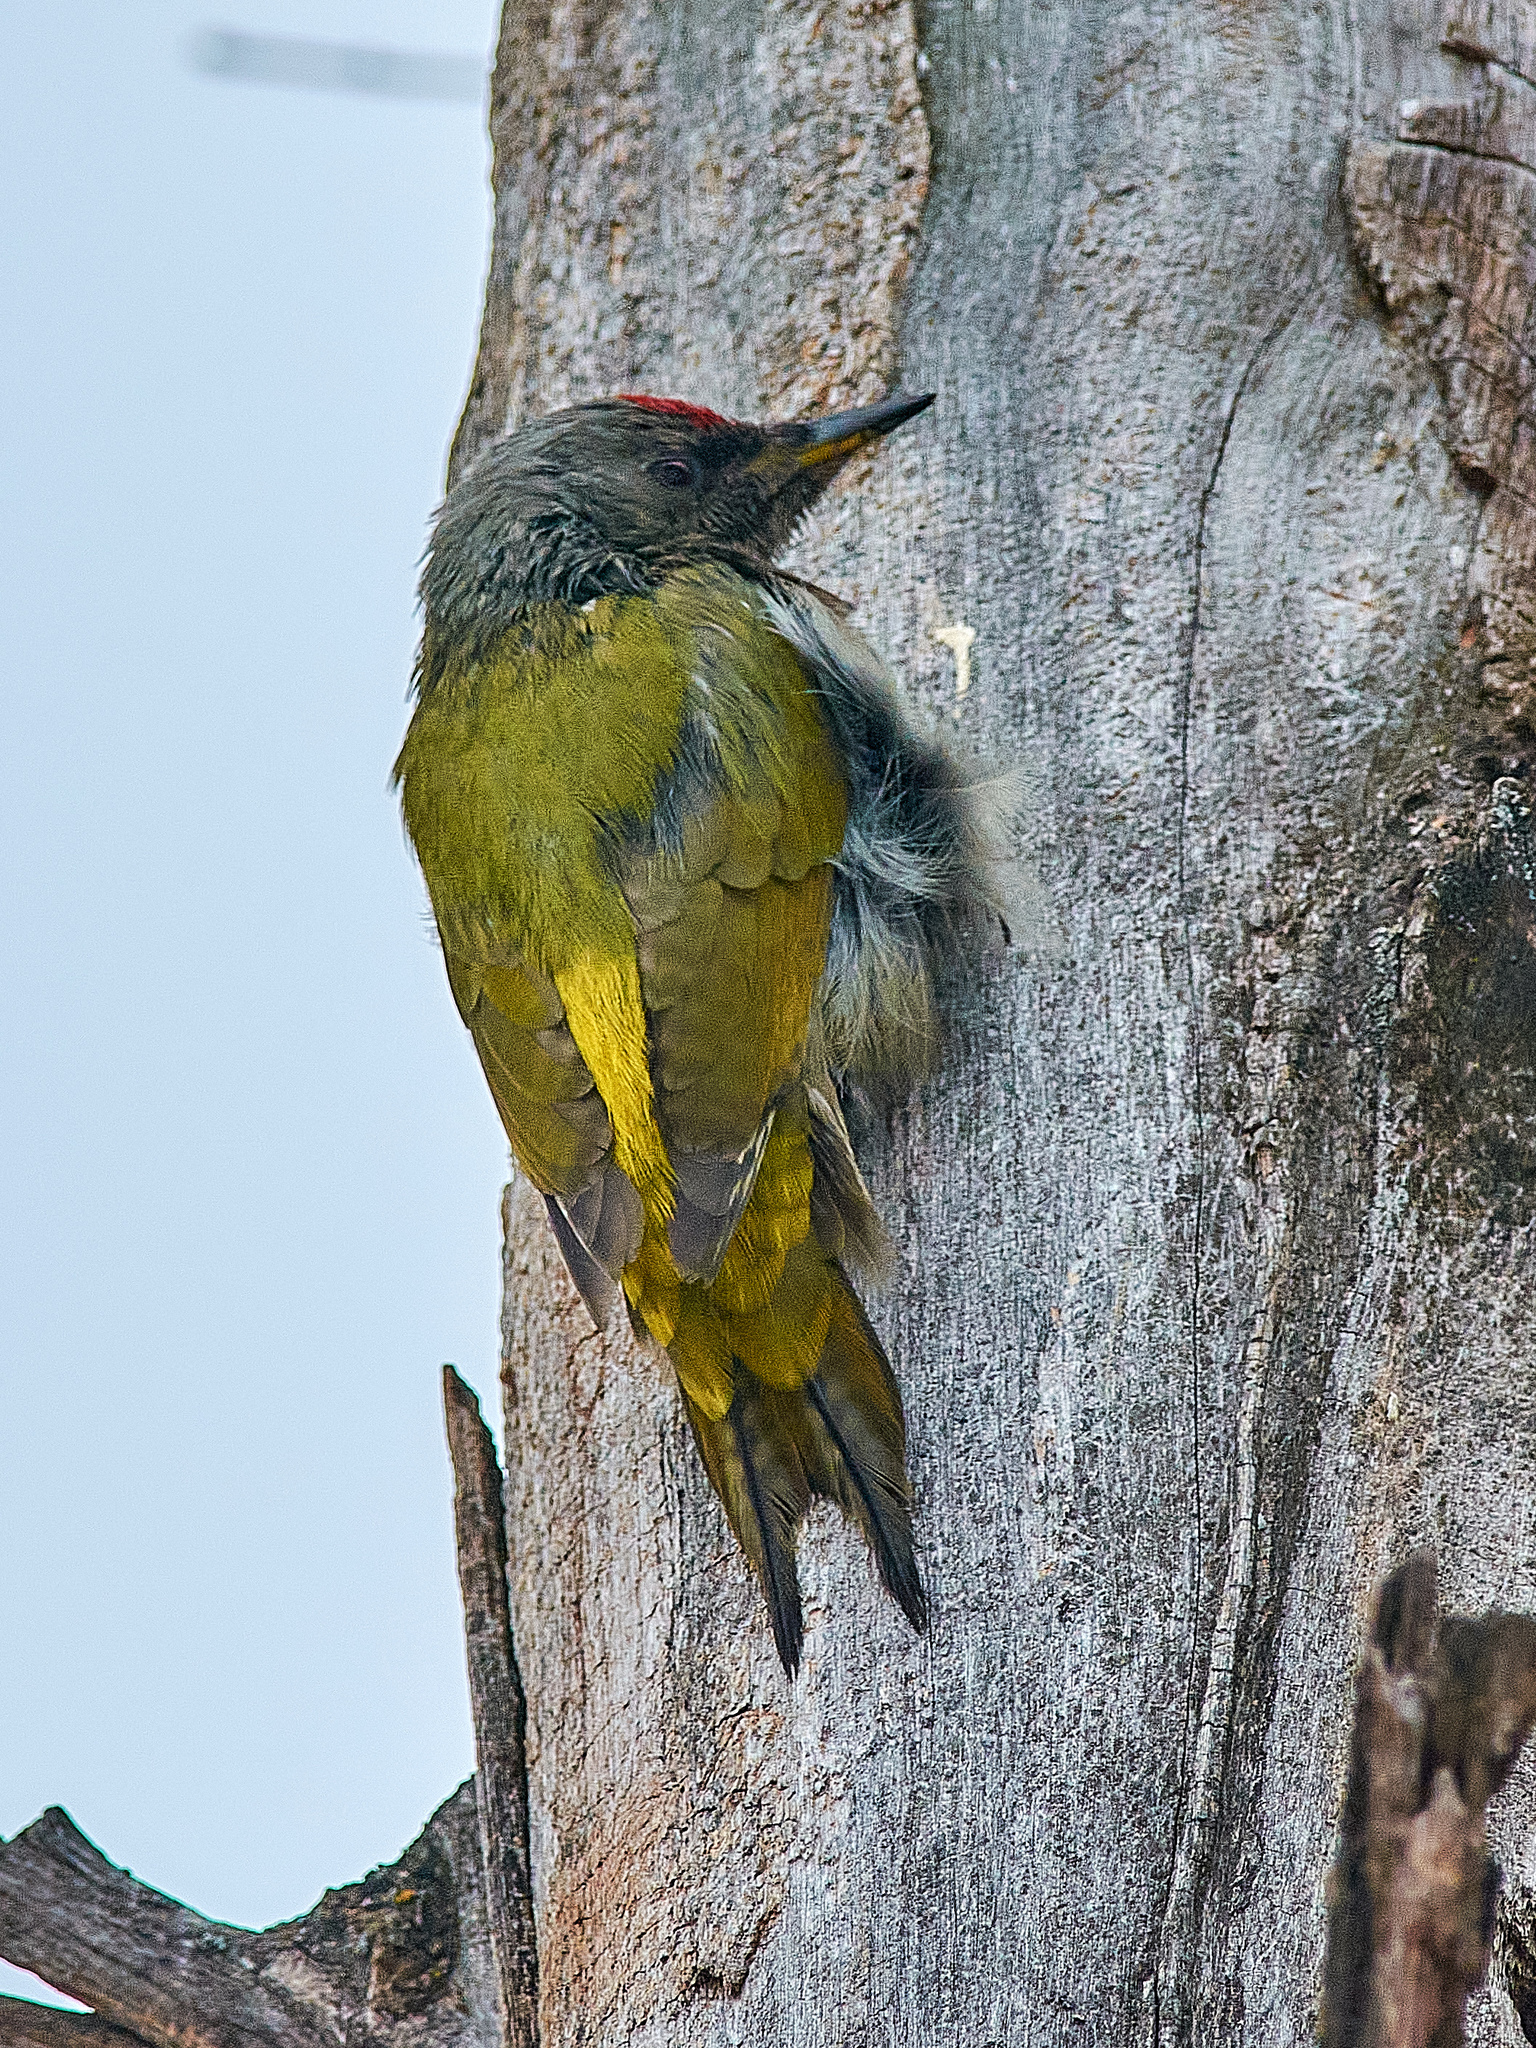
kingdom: Animalia
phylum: Chordata
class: Aves
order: Piciformes
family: Picidae
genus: Picus
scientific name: Picus canus
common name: Grey-headed woodpecker
